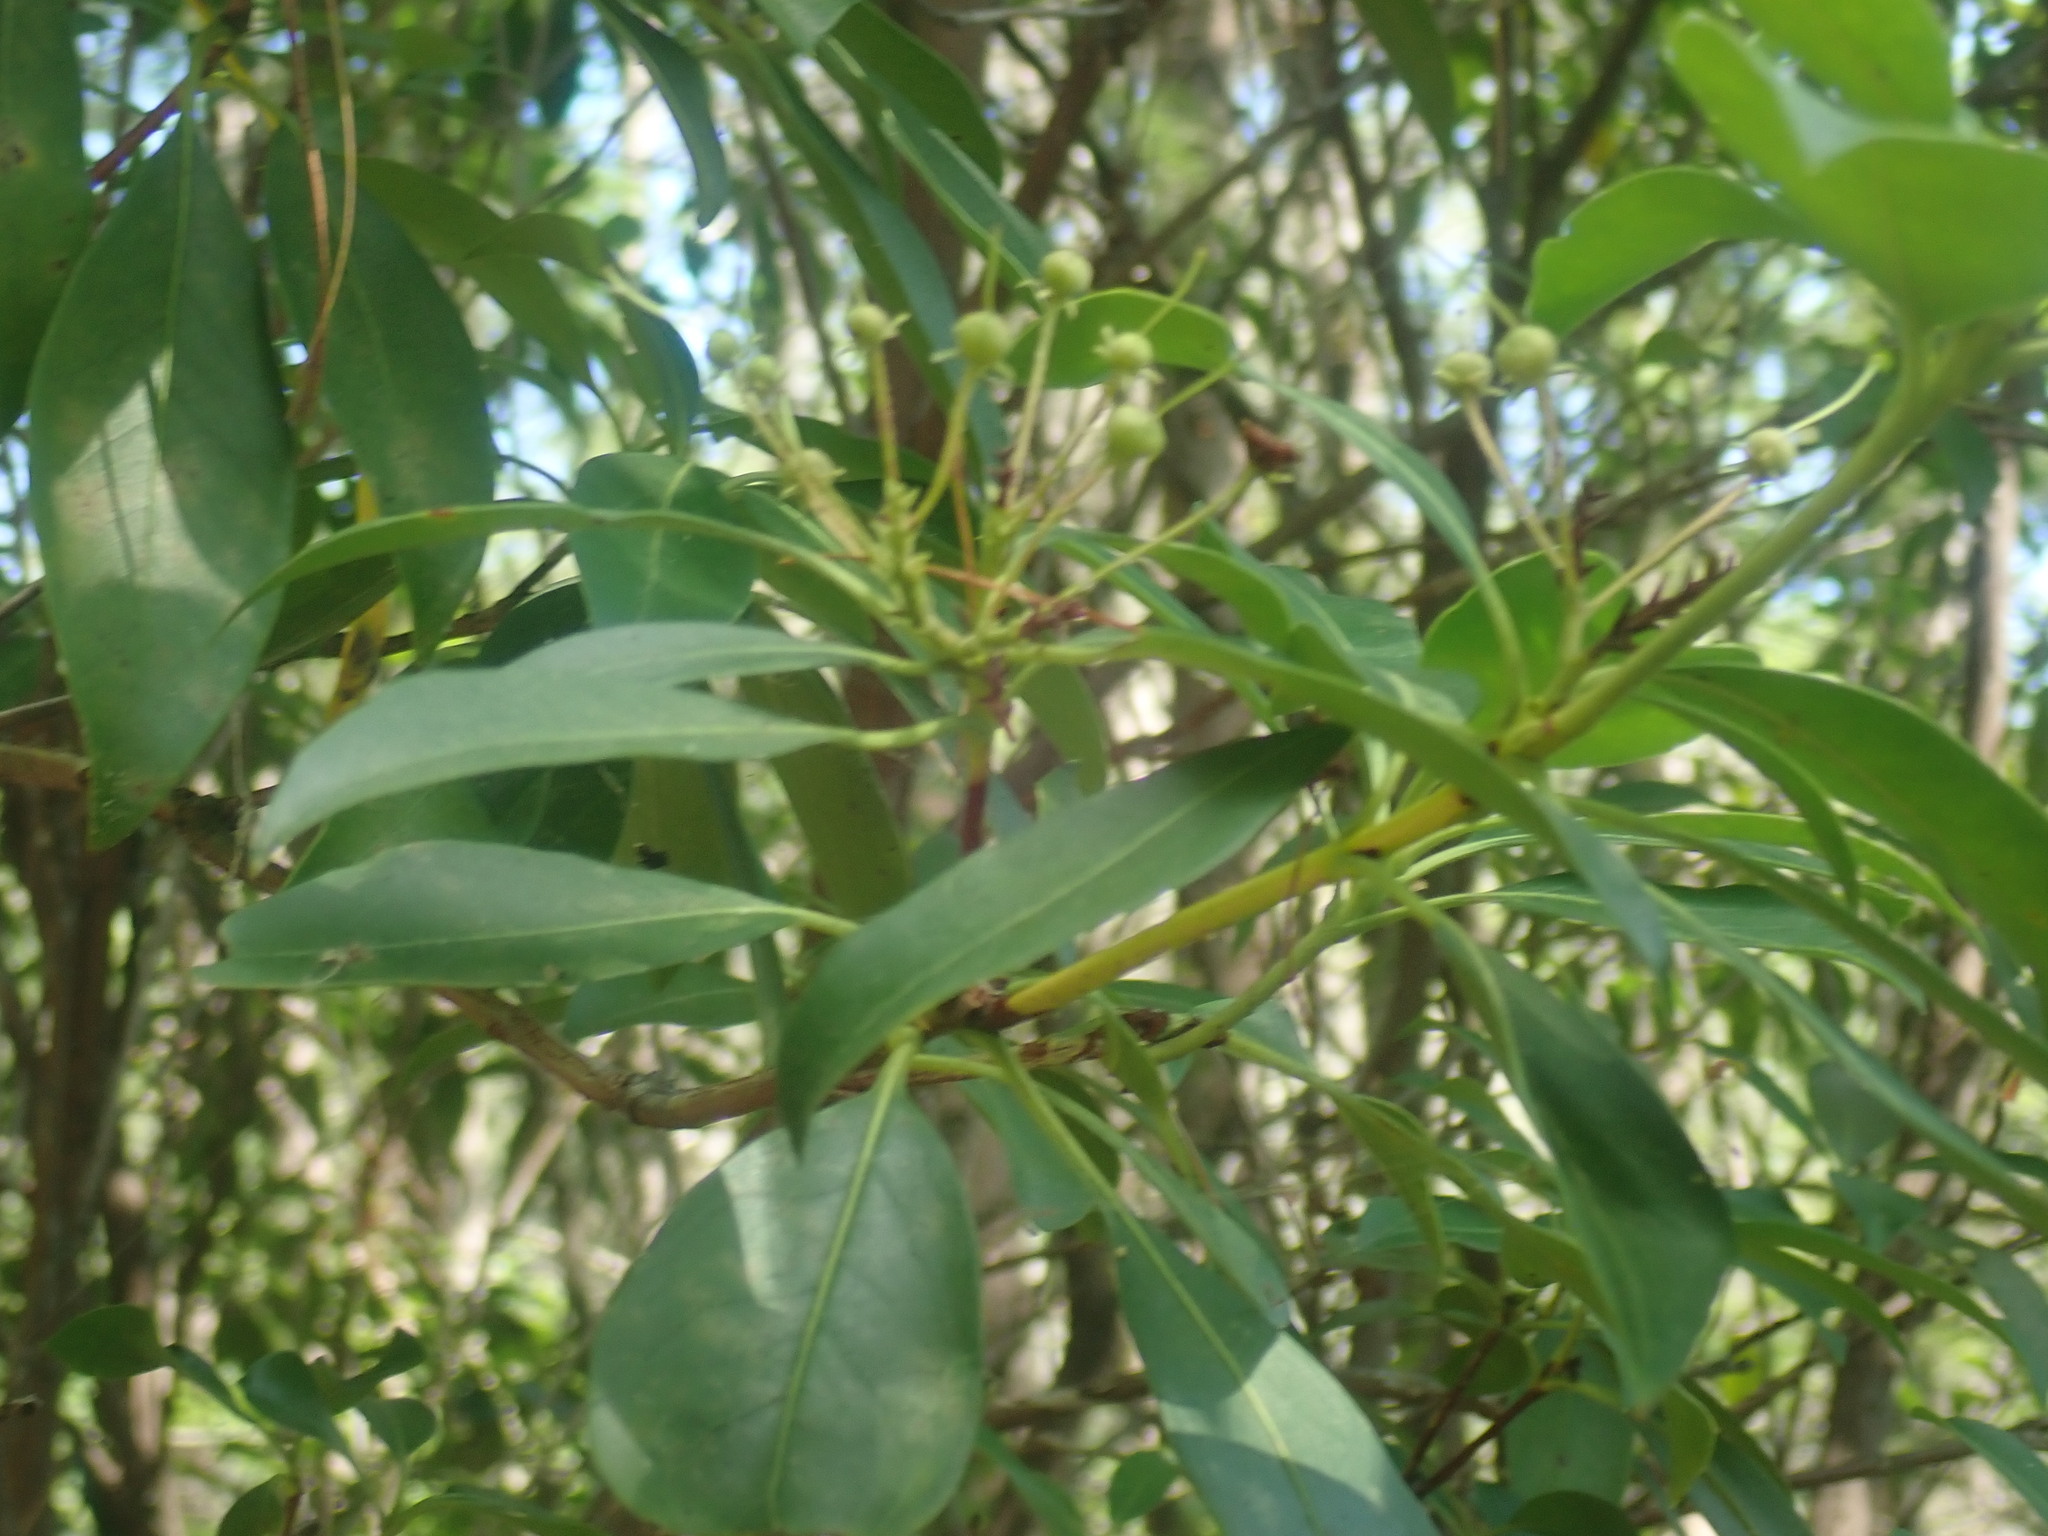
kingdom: Plantae
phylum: Tracheophyta
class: Magnoliopsida
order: Ericales
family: Ericaceae
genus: Kalmia
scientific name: Kalmia latifolia
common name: Mountain-laurel
